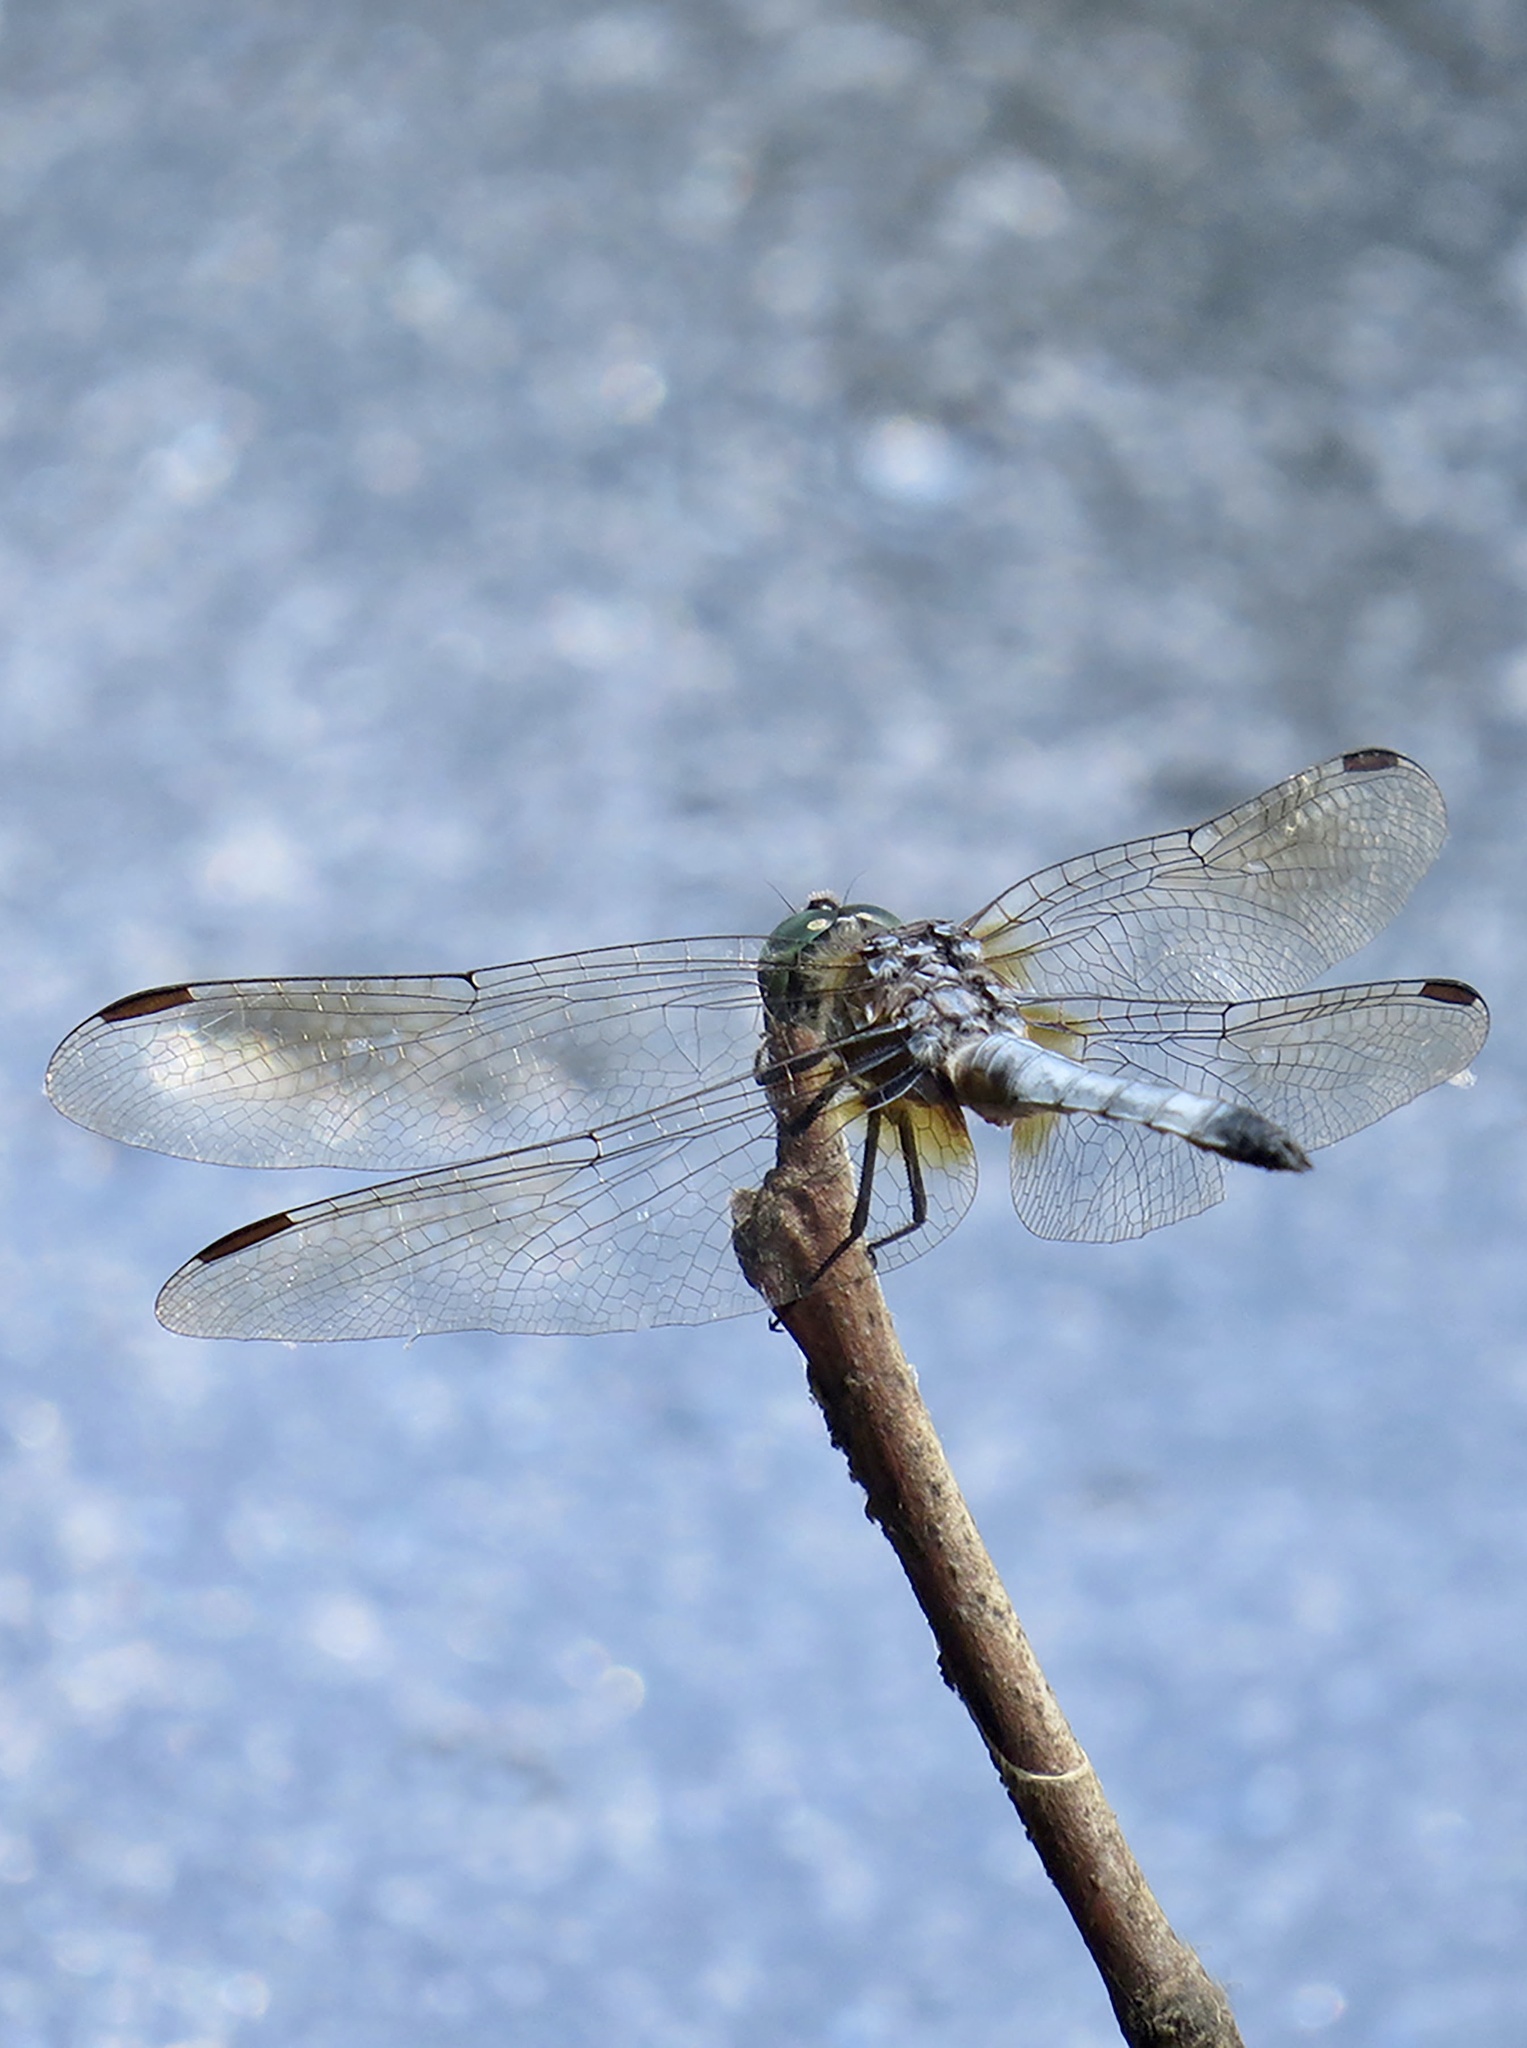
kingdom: Animalia
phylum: Arthropoda
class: Insecta
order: Odonata
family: Libellulidae
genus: Pachydiplax
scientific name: Pachydiplax longipennis
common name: Blue dasher
